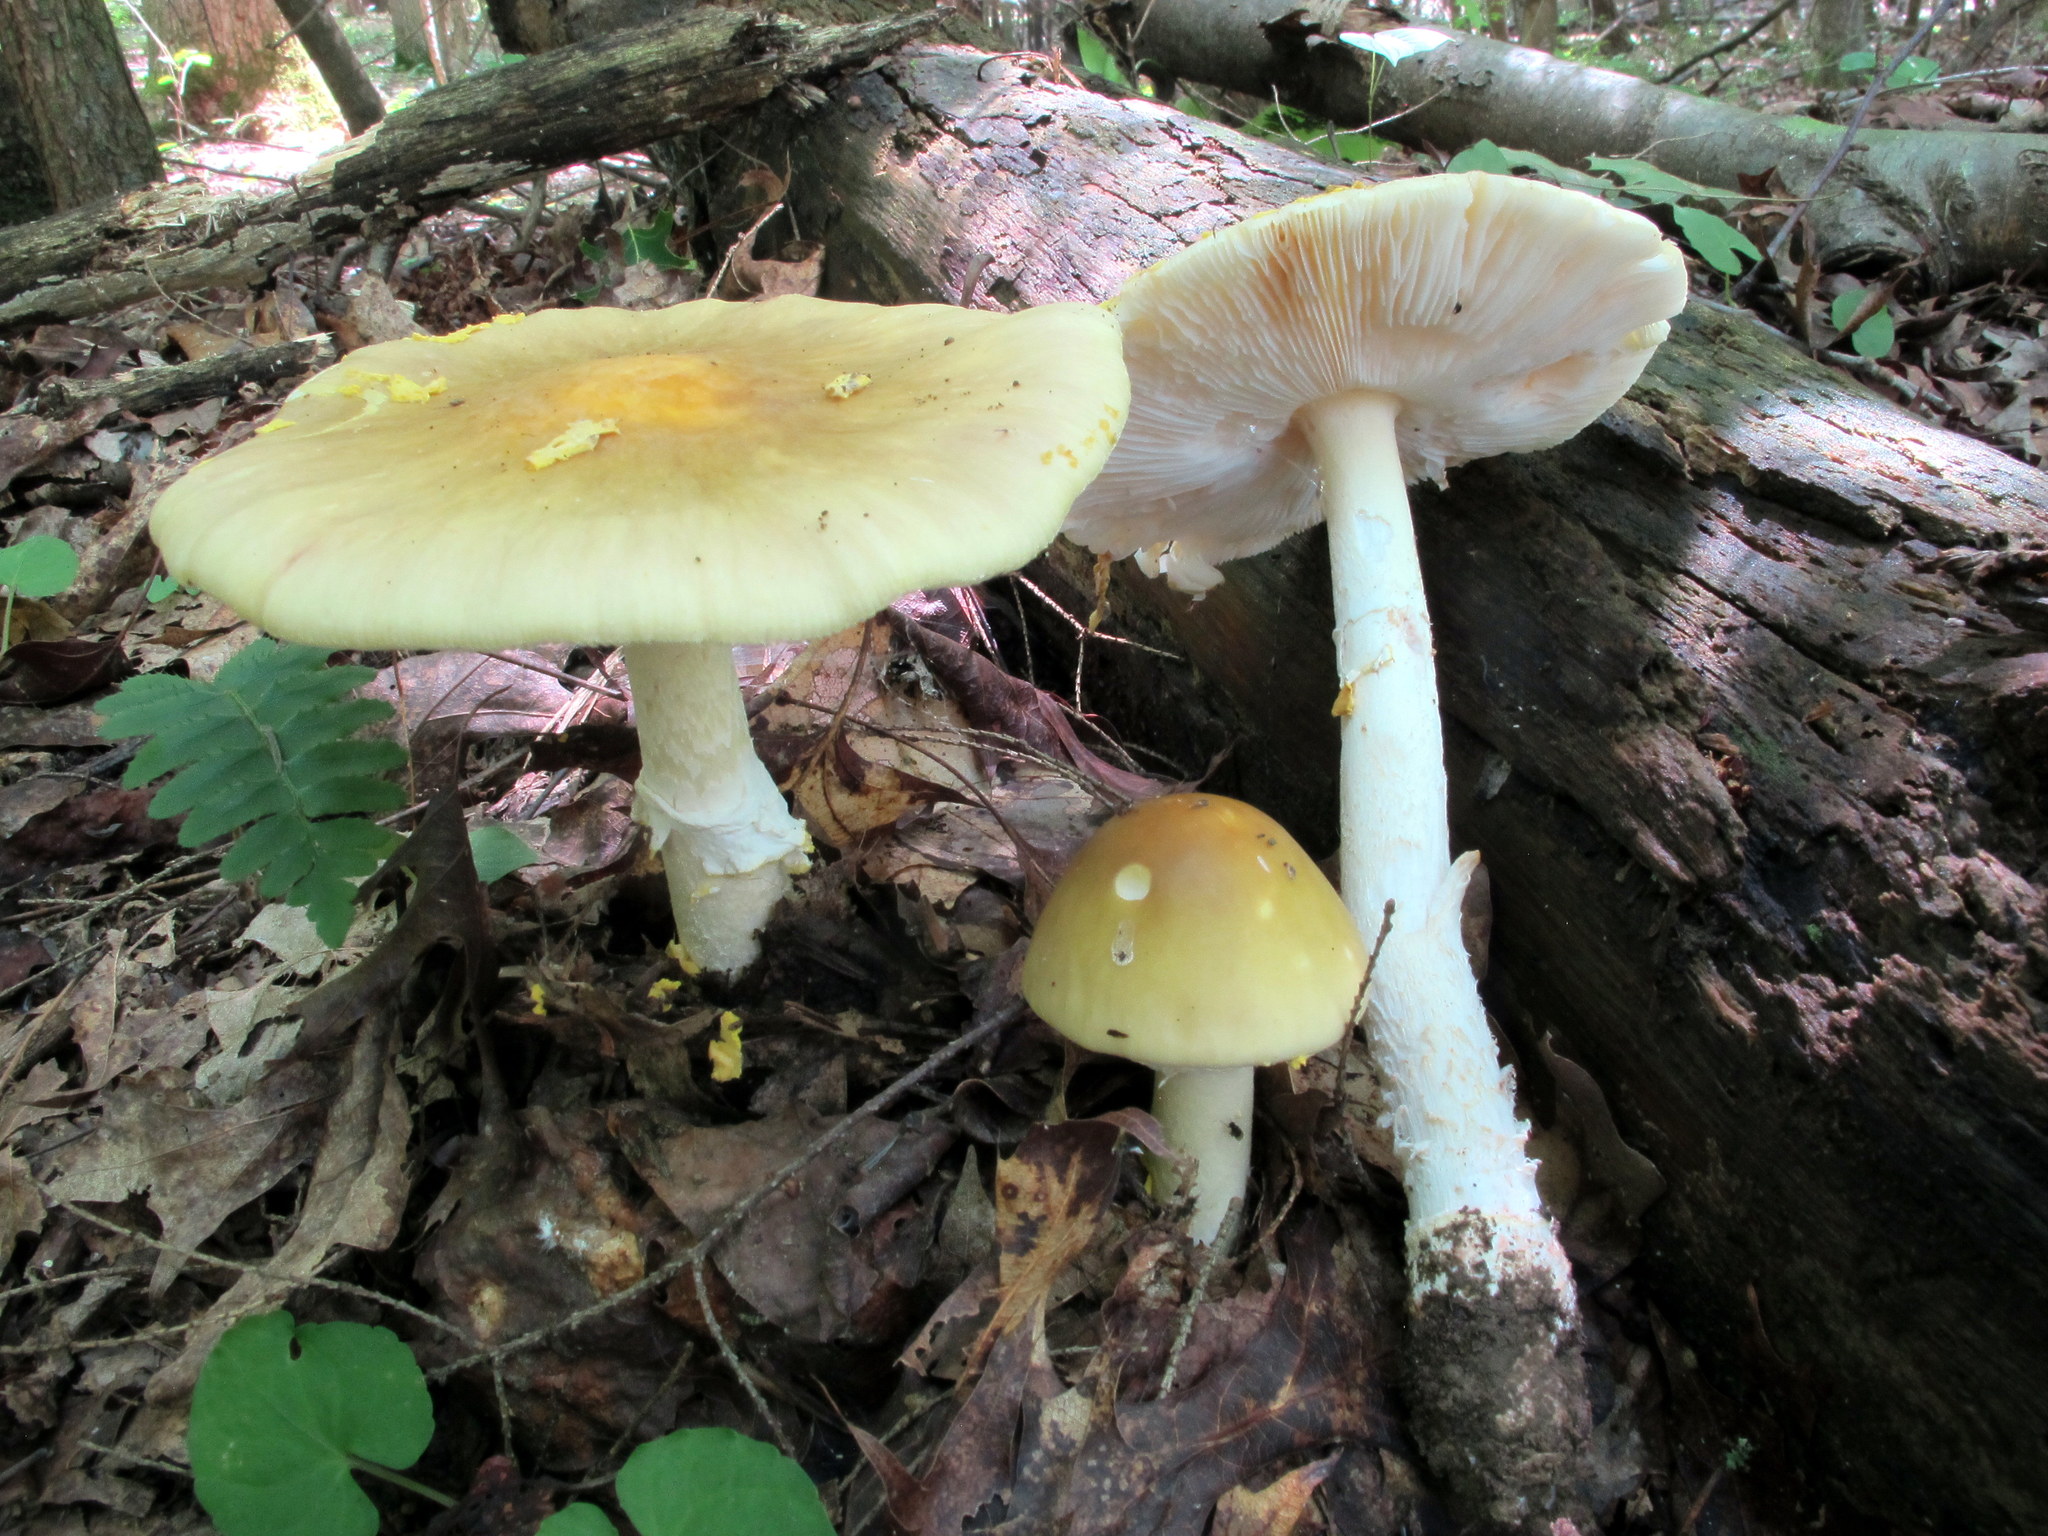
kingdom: Fungi
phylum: Basidiomycota
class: Agaricomycetes
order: Agaricales
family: Amanitaceae
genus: Amanita
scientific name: Amanita flavorubens
